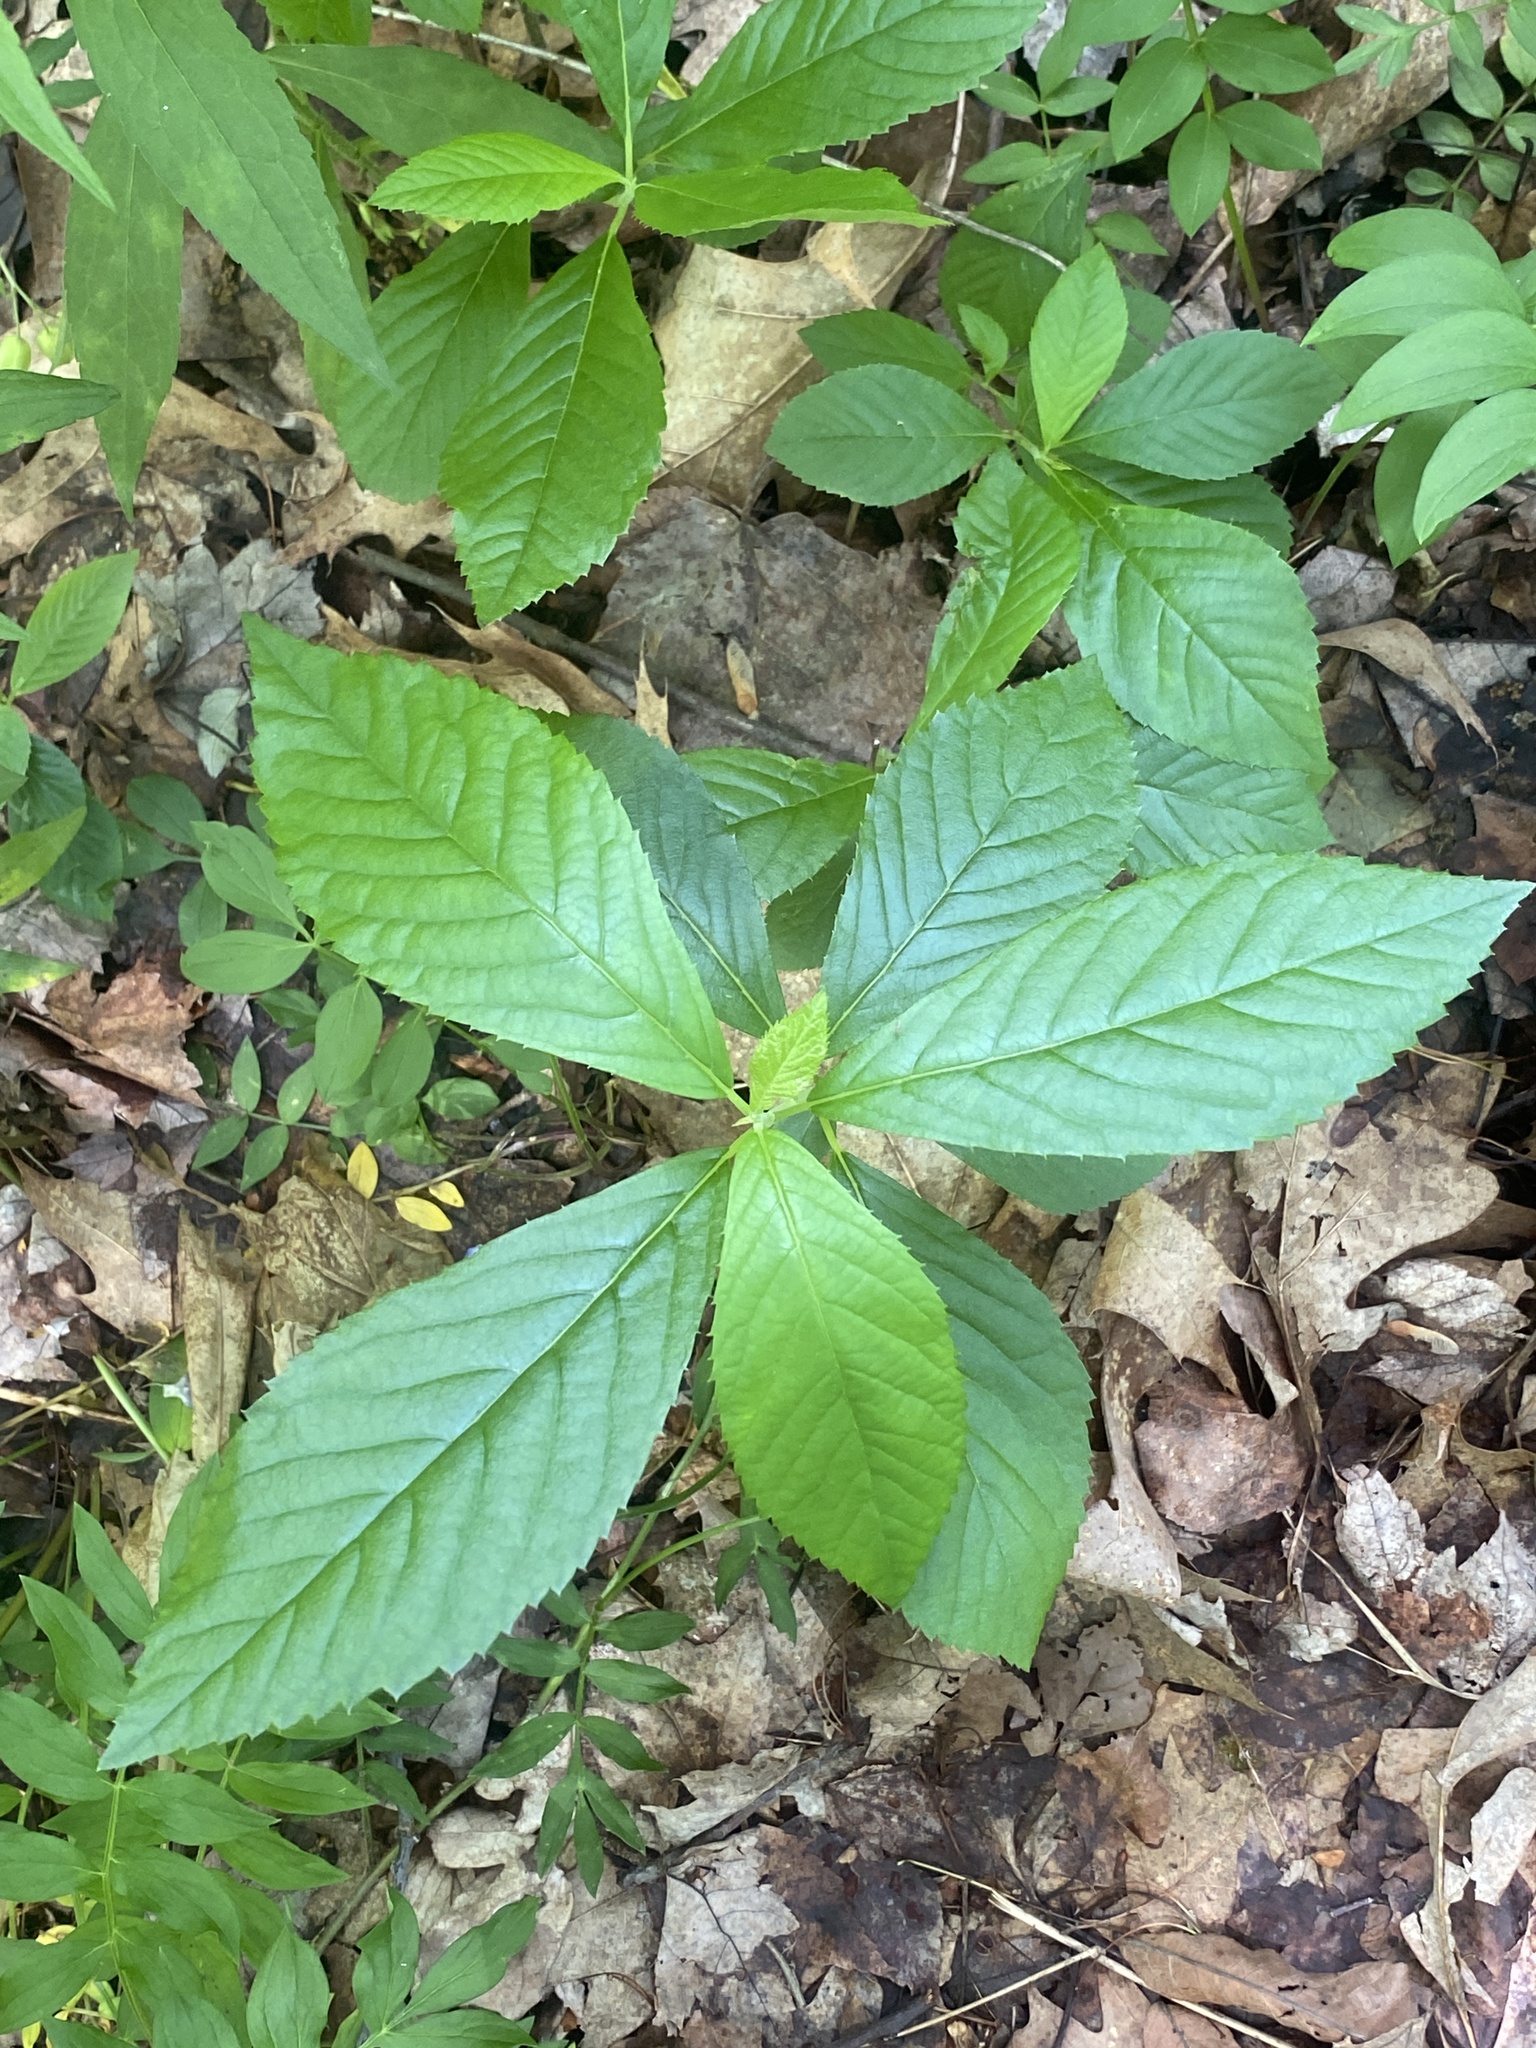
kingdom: Plantae
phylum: Tracheophyta
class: Magnoliopsida
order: Ericales
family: Clethraceae
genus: Clethra
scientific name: Clethra alnifolia
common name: Sweet pepperbush
